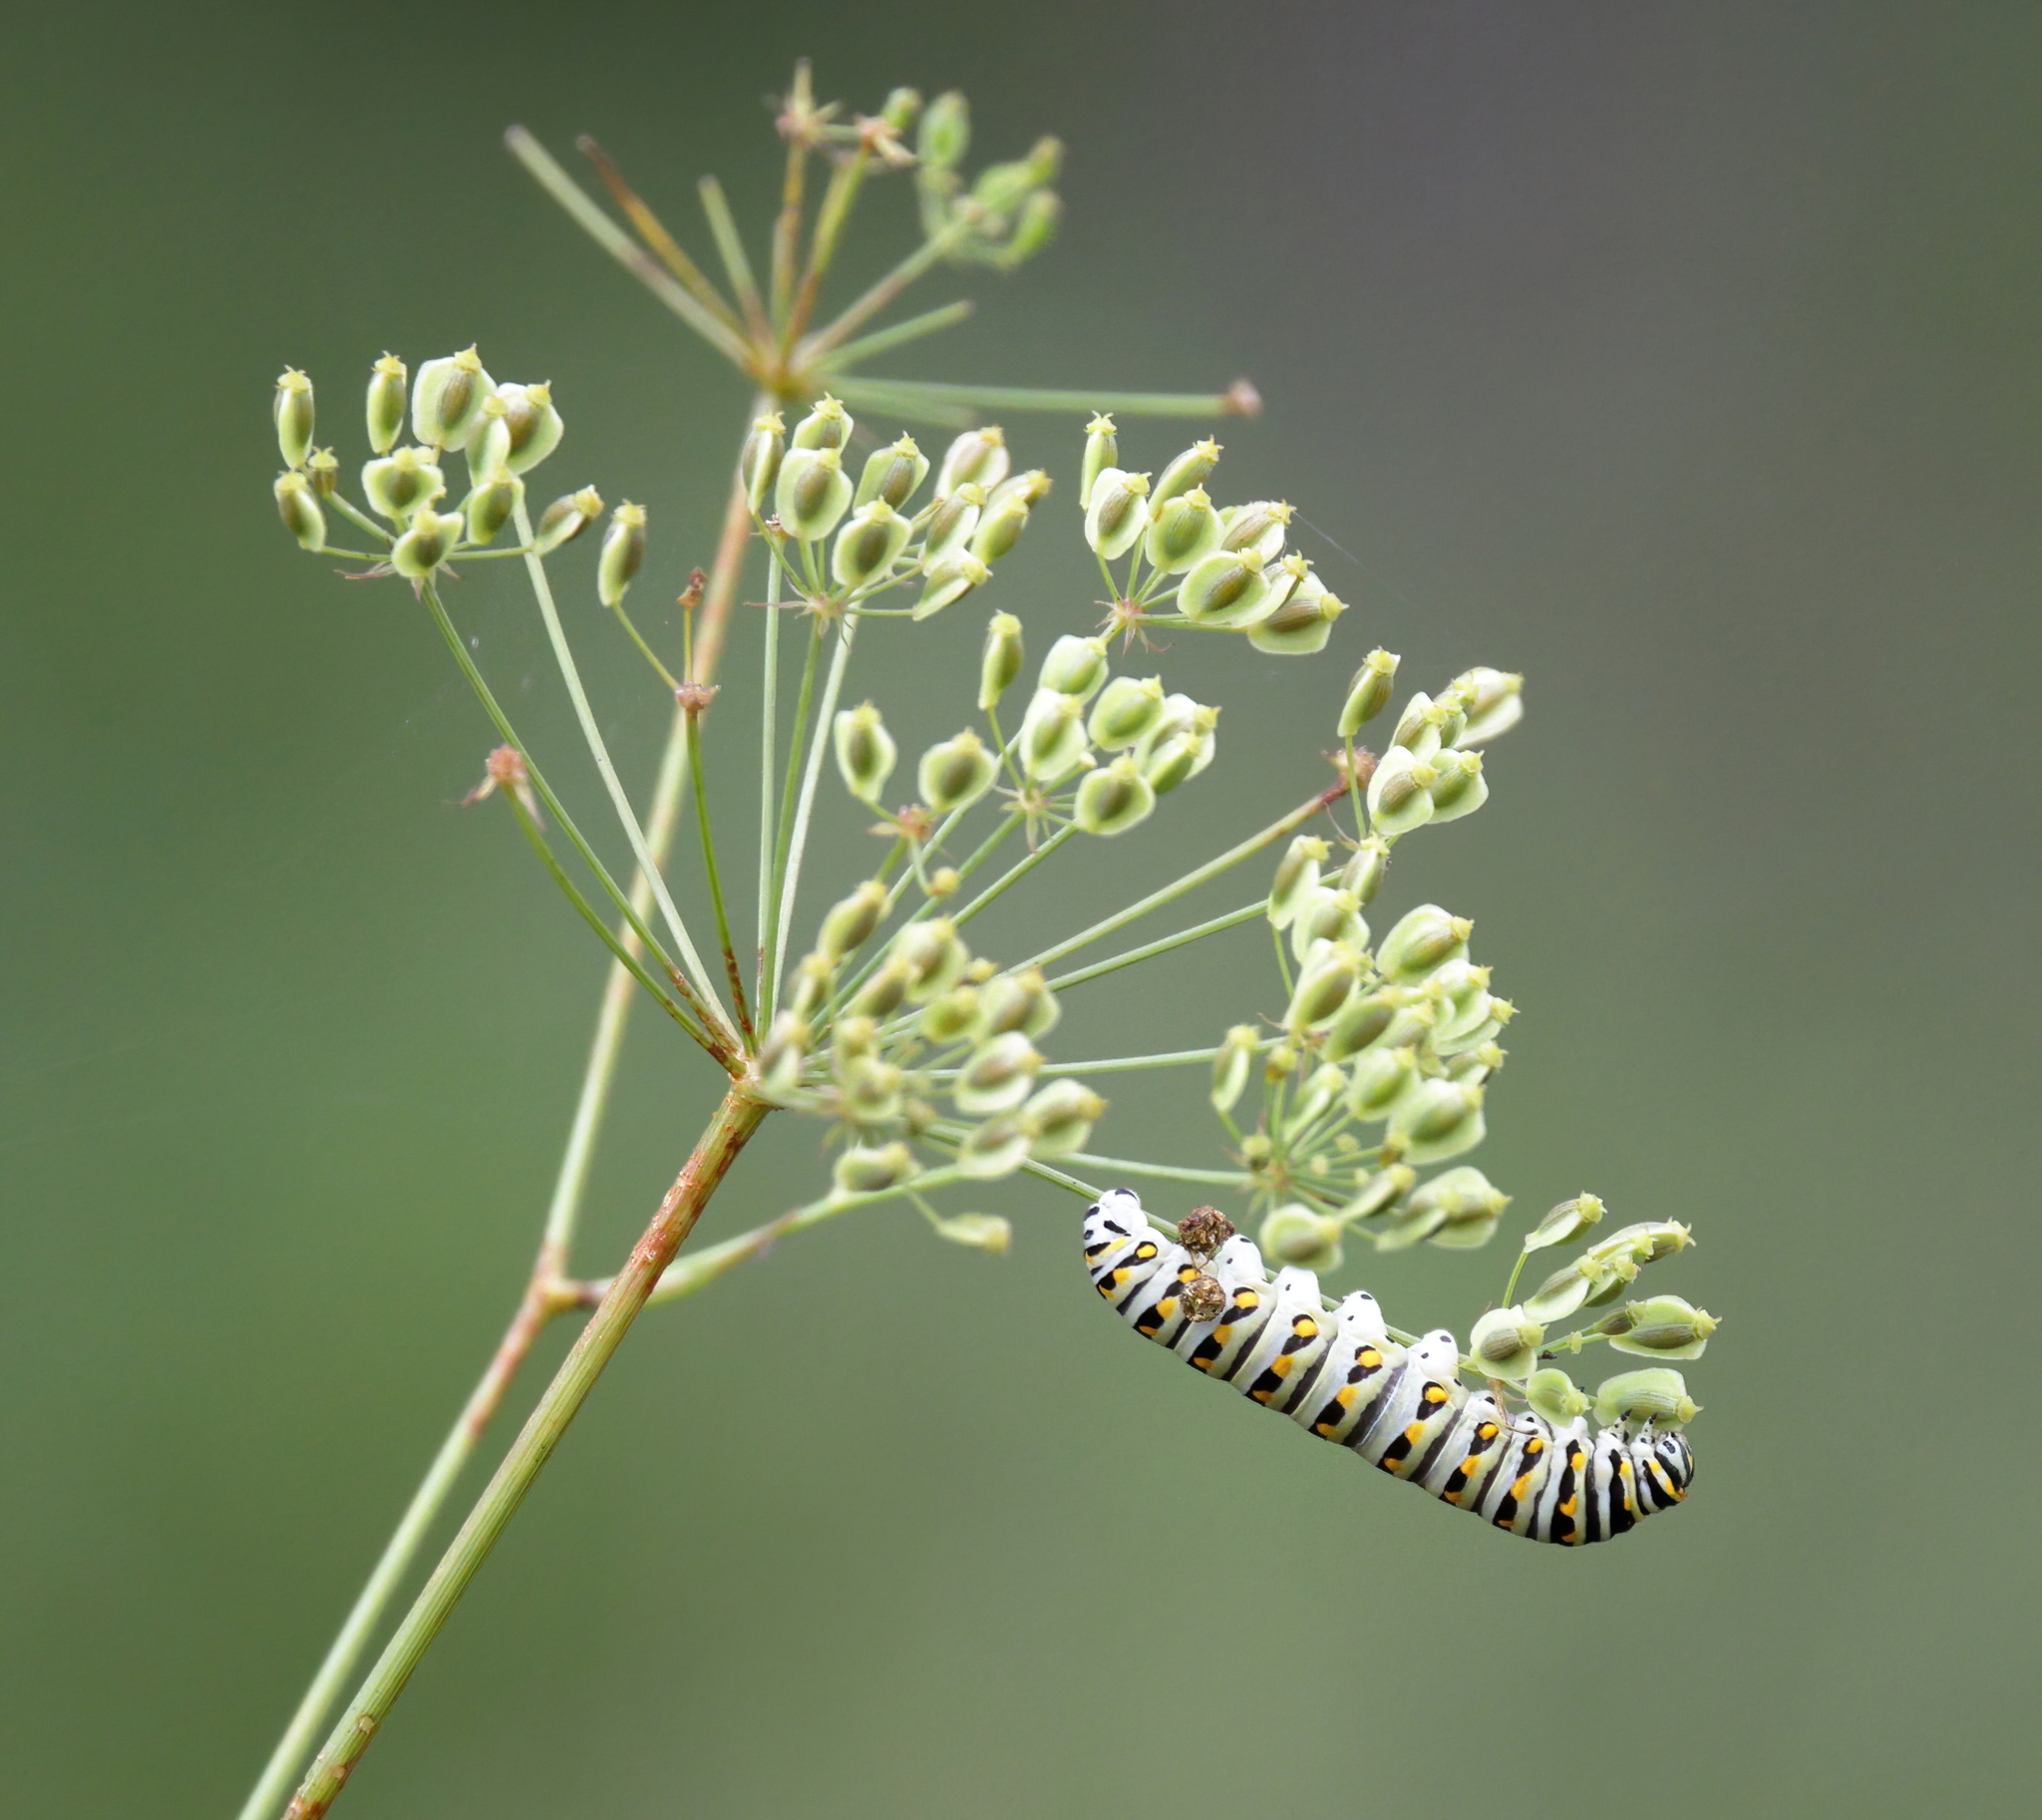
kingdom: Animalia
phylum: Arthropoda
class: Insecta
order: Lepidoptera
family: Papilionidae
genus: Papilio
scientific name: Papilio polyxenes
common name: Black swallowtail
